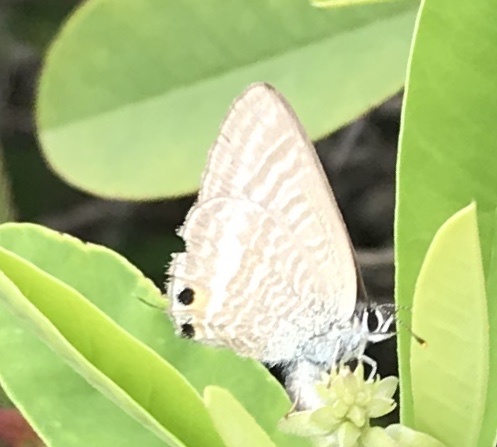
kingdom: Animalia
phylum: Arthropoda
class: Insecta
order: Lepidoptera
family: Lycaenidae
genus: Lampides
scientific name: Lampides boeticus
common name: Long-tailed blue
